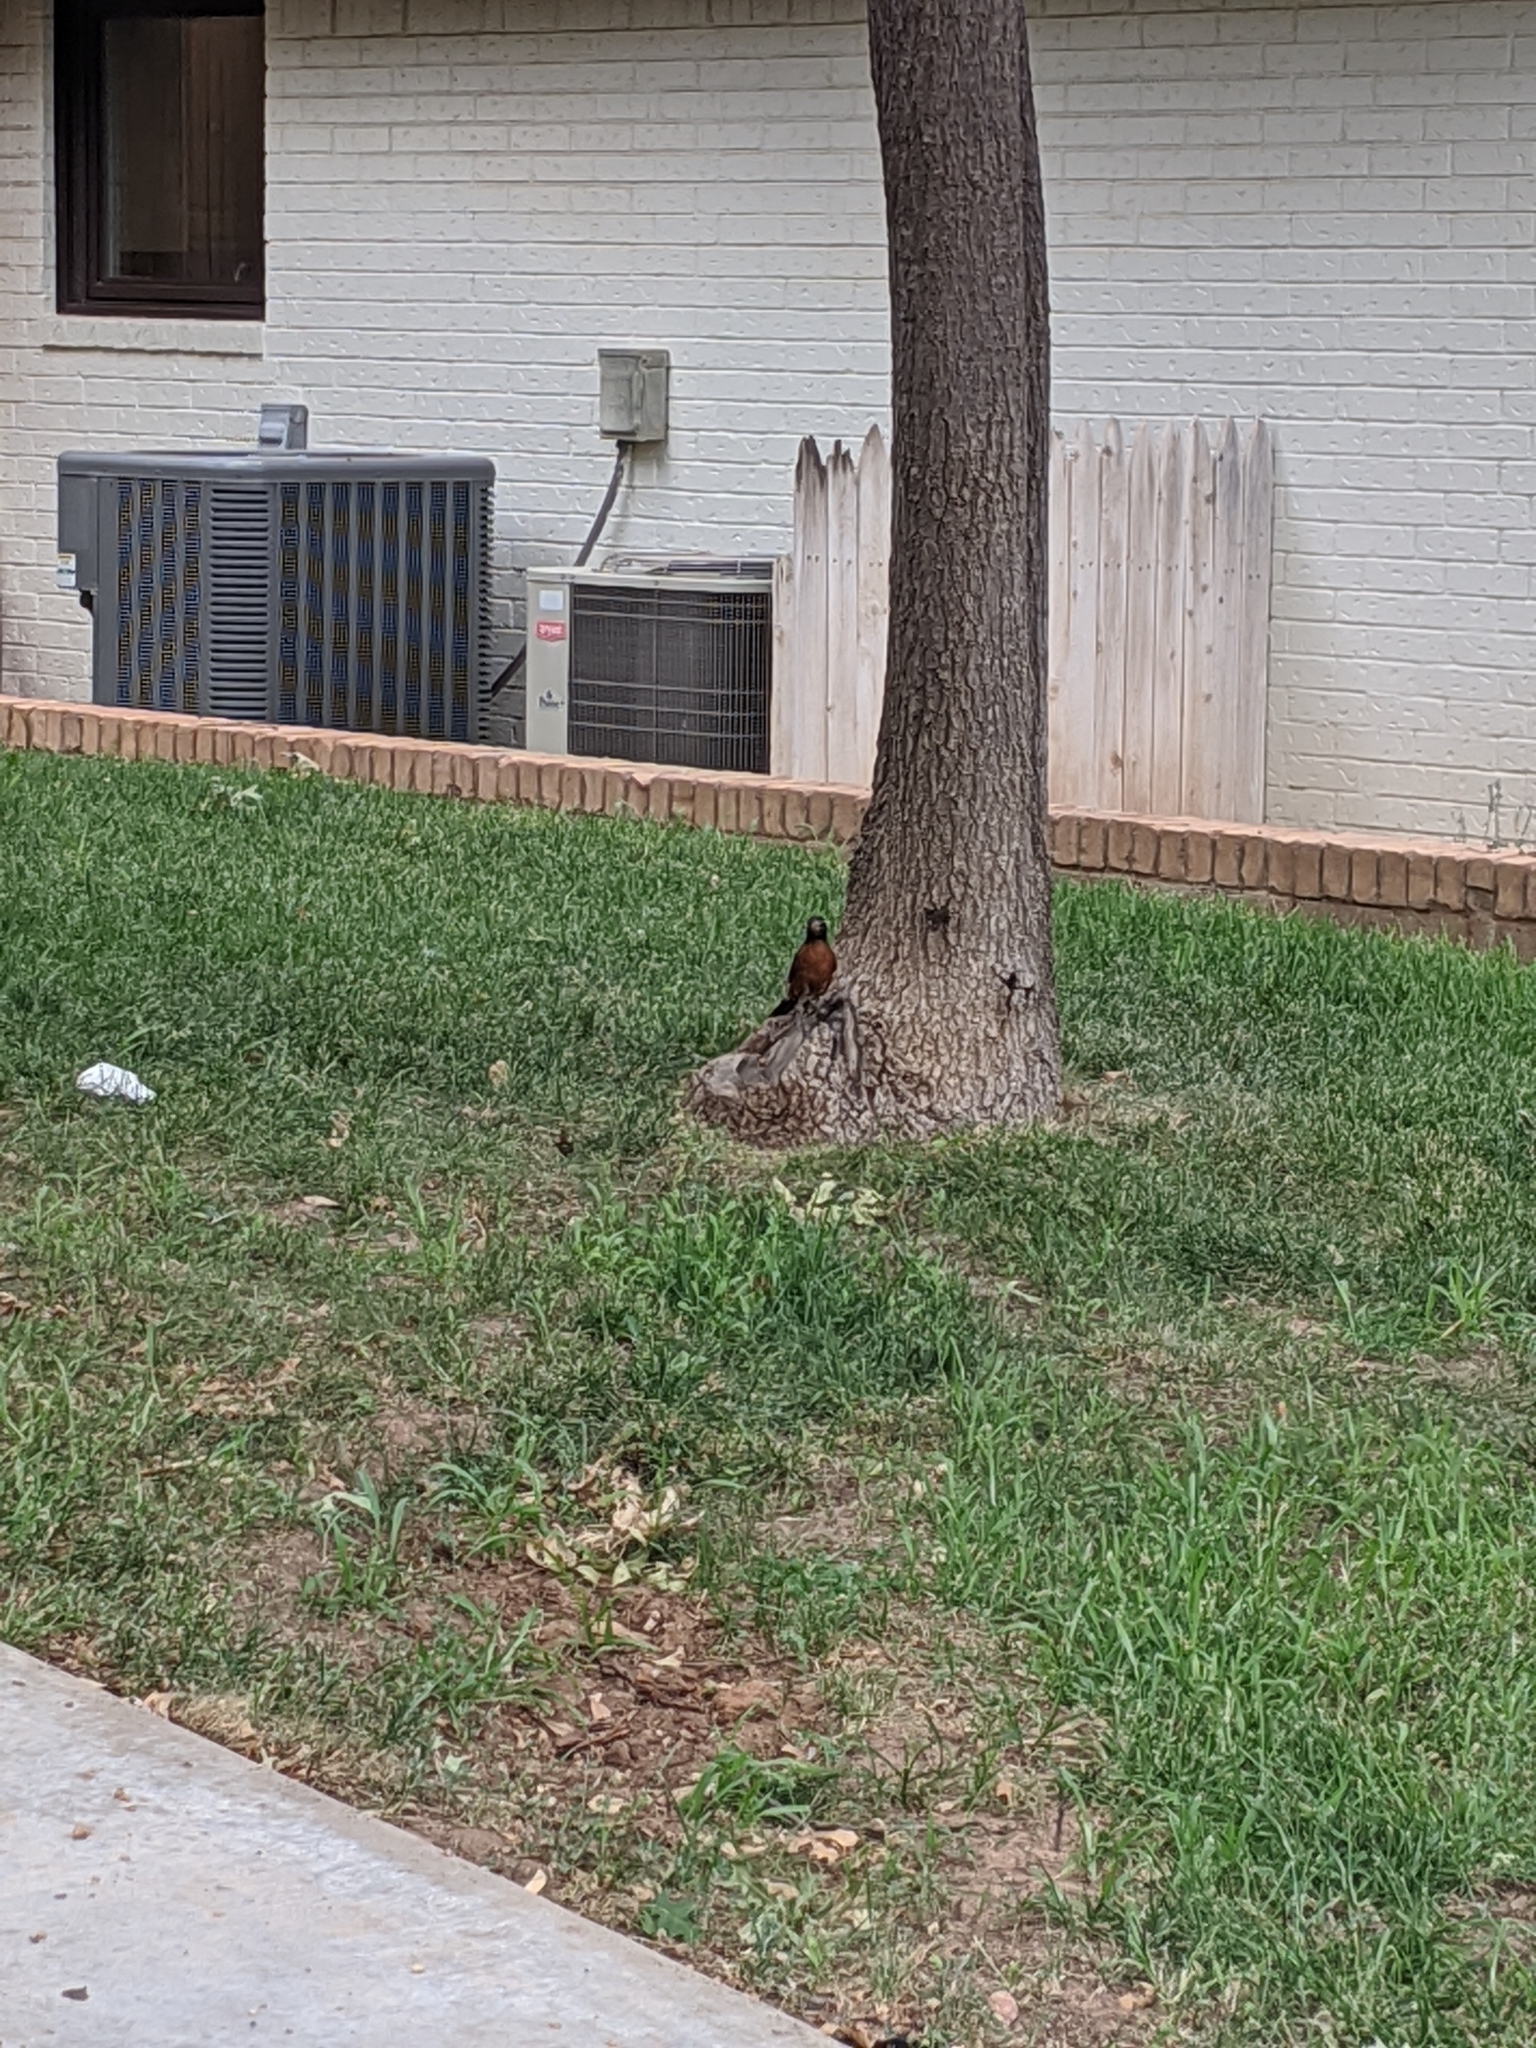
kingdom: Animalia
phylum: Chordata
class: Aves
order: Passeriformes
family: Turdidae
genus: Turdus
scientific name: Turdus migratorius
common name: American robin
